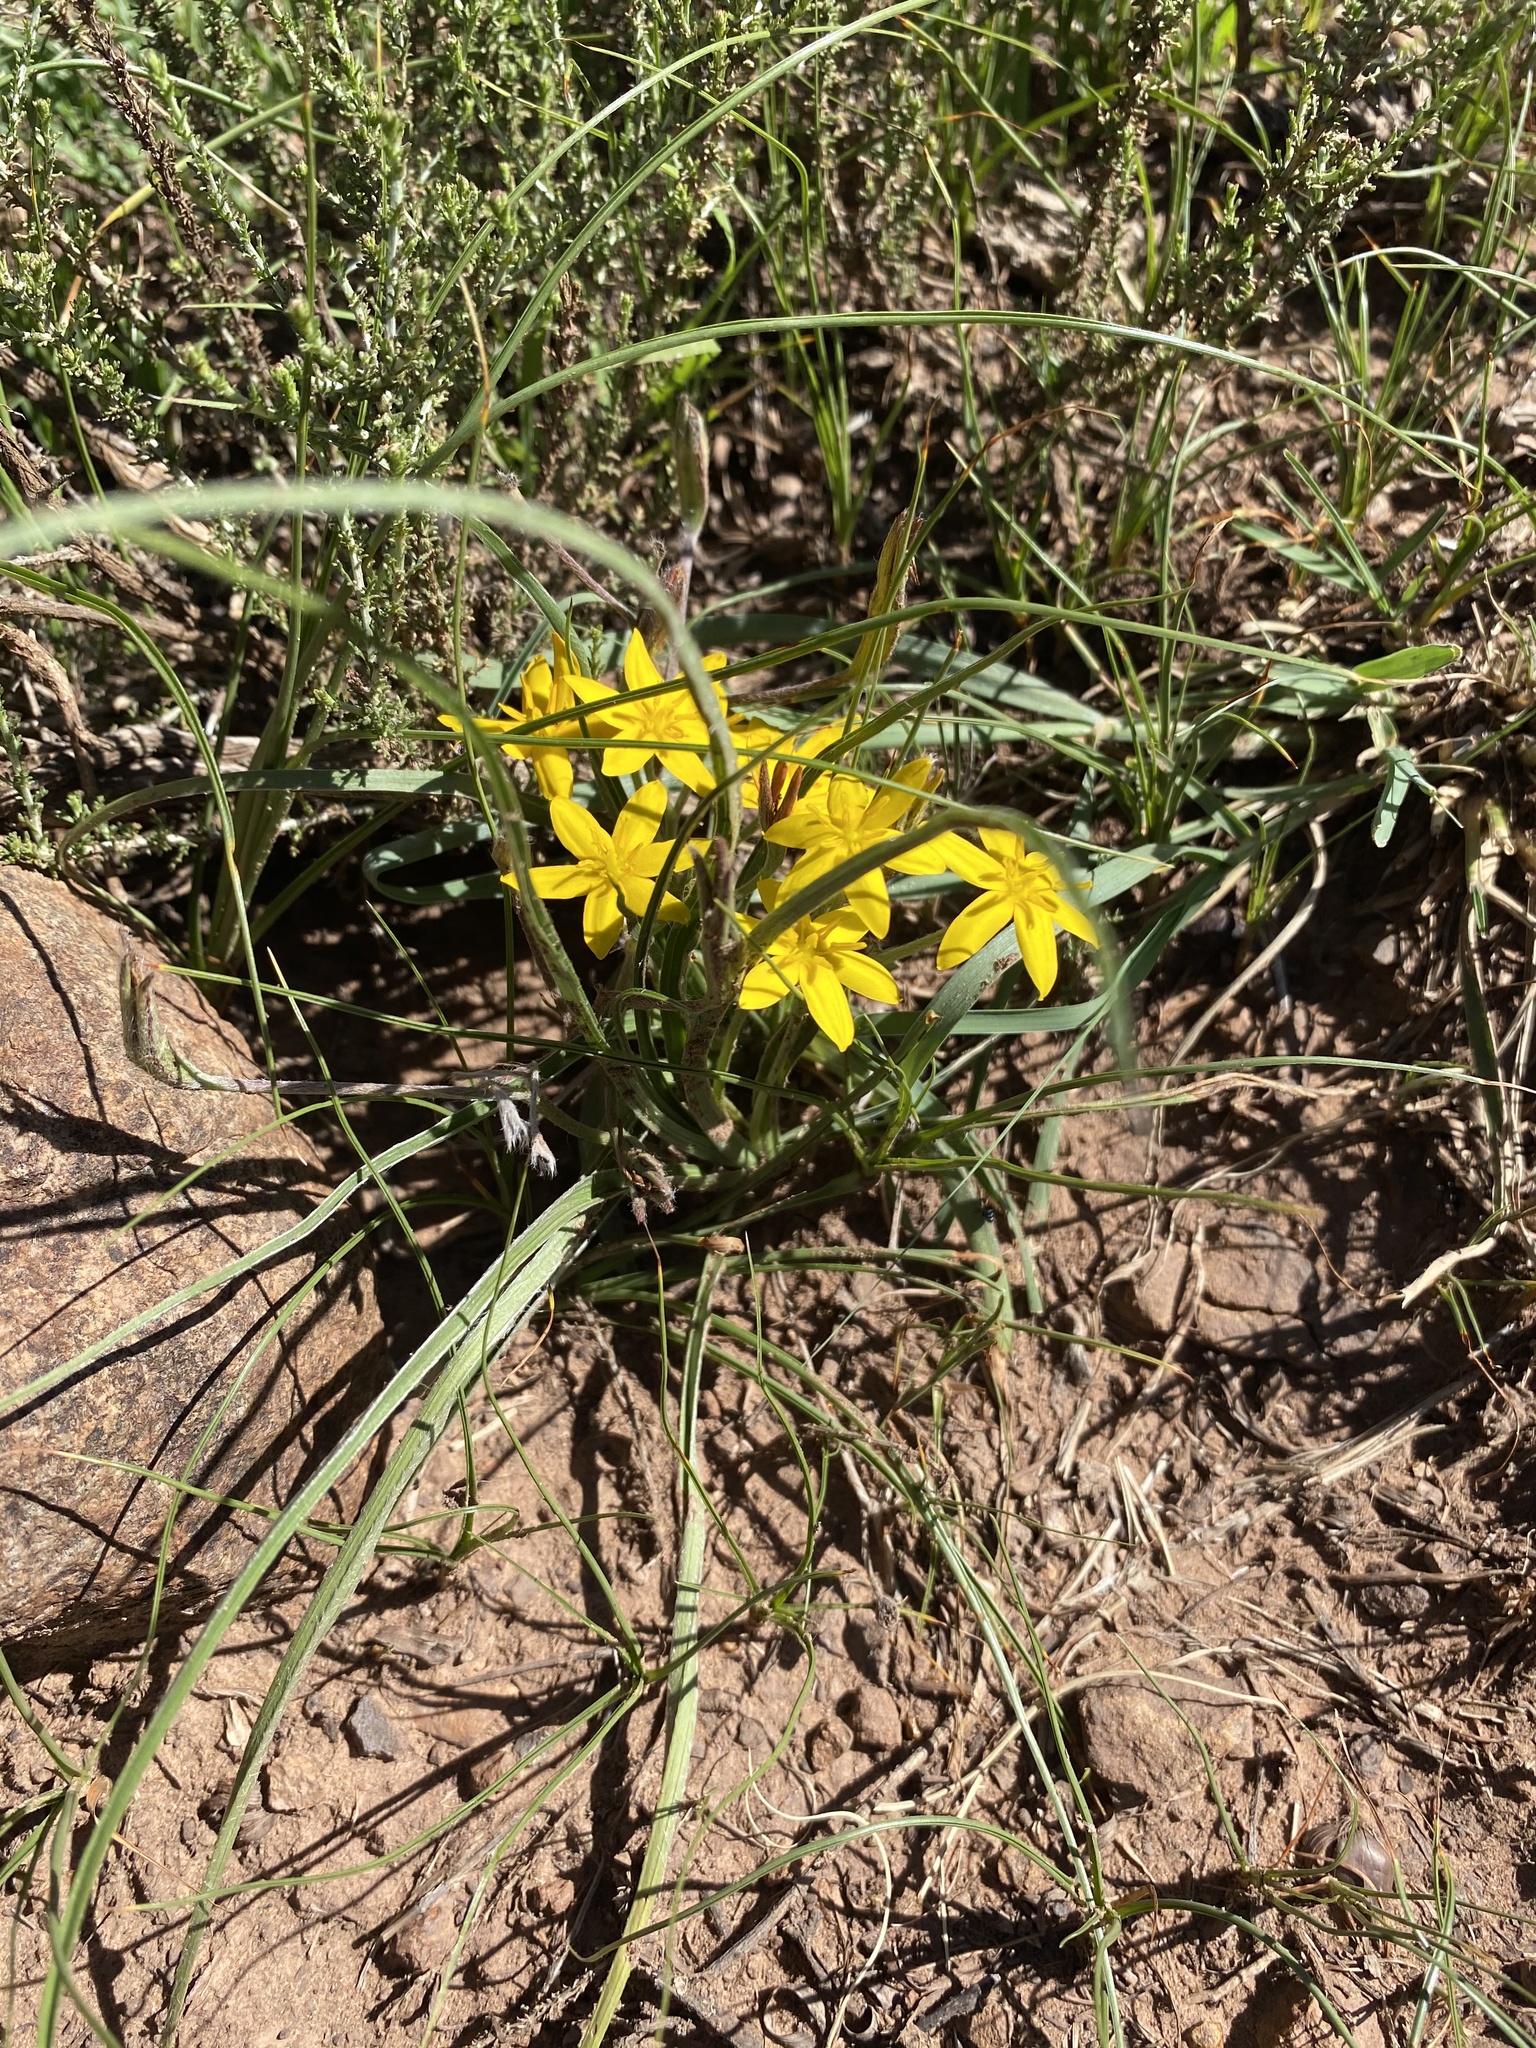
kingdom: Plantae
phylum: Tracheophyta
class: Liliopsida
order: Asparagales
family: Hypoxidaceae
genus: Hypoxis
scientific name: Hypoxis rigidula
